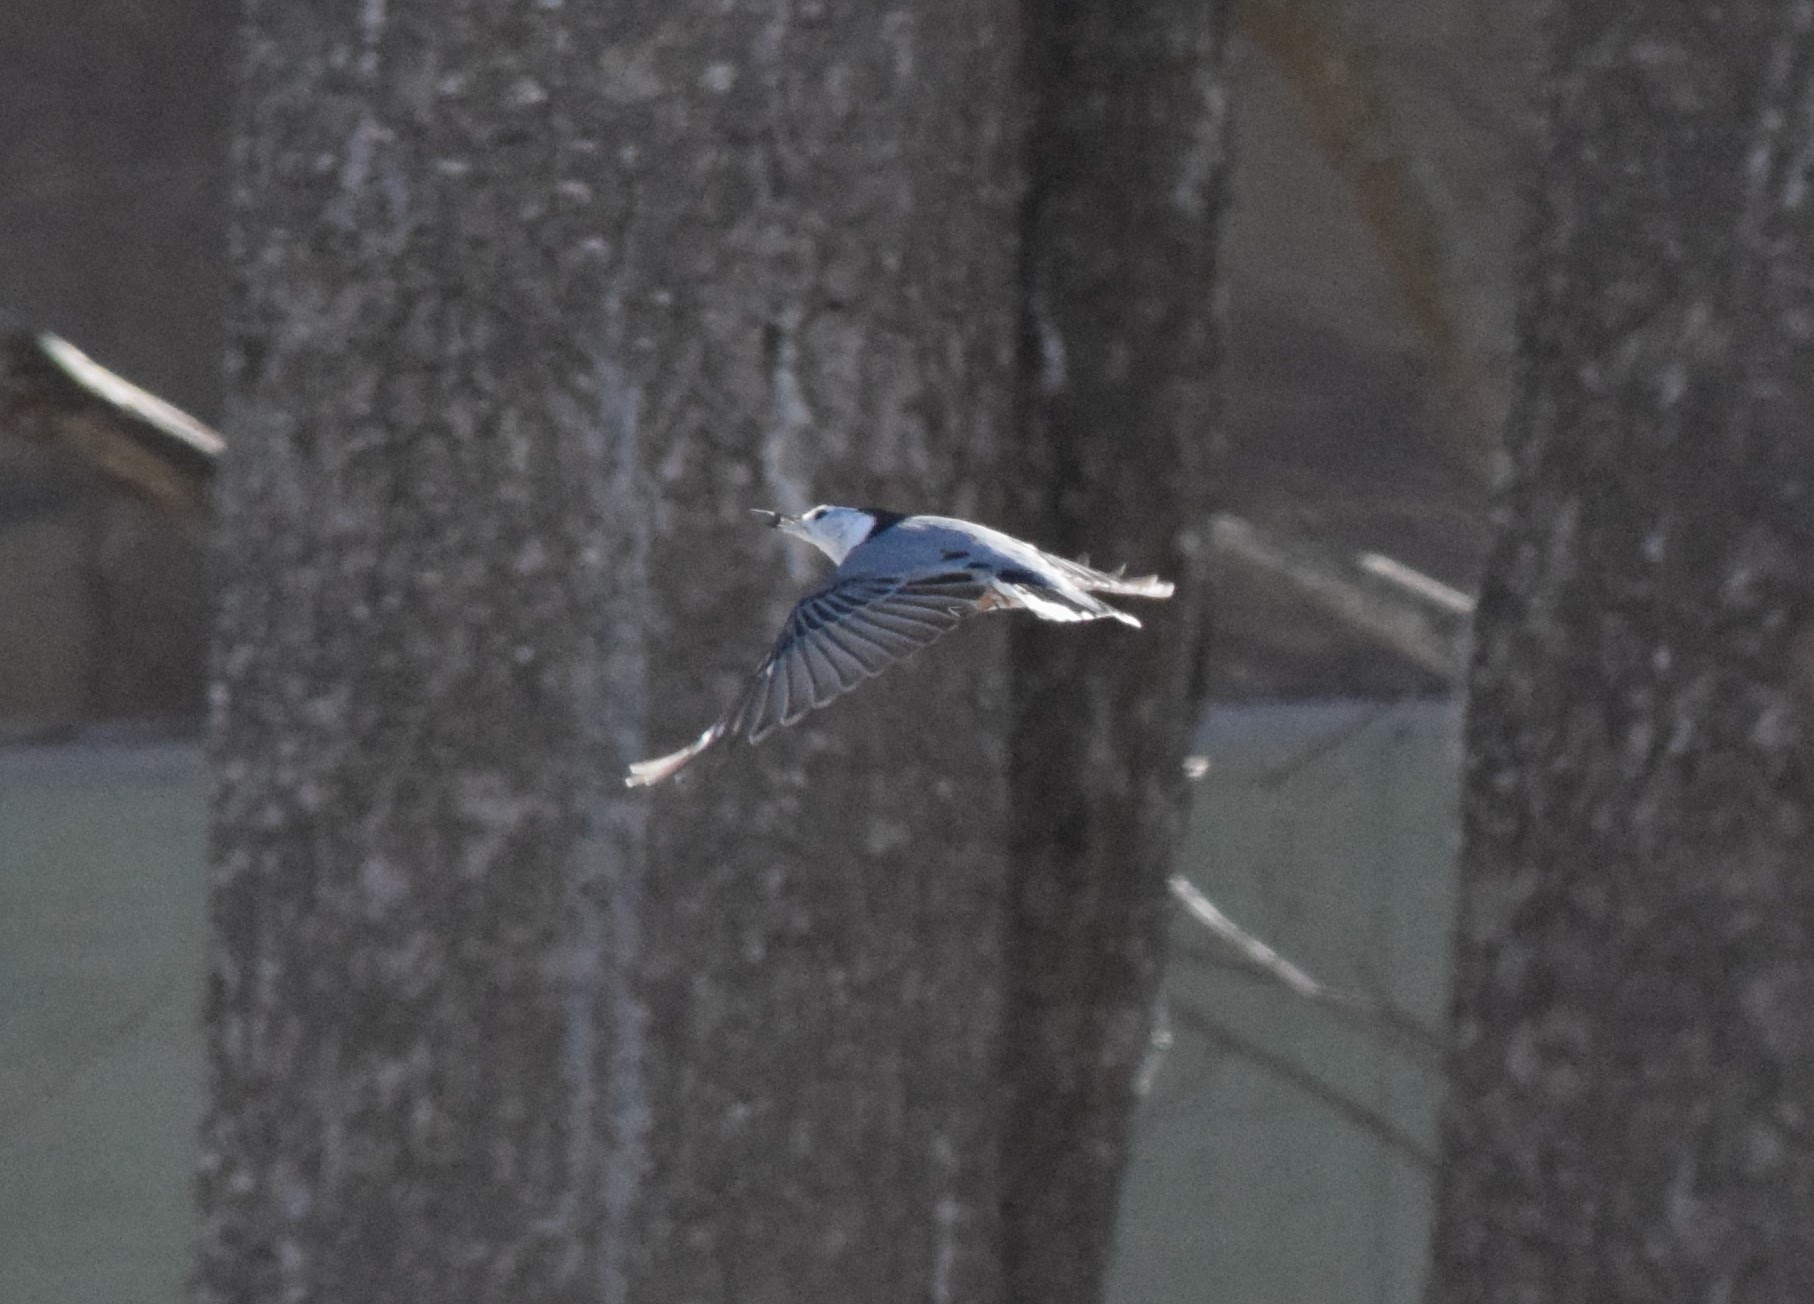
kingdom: Animalia
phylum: Chordata
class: Aves
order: Passeriformes
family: Sittidae
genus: Sitta
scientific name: Sitta carolinensis
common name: White-breasted nuthatch
